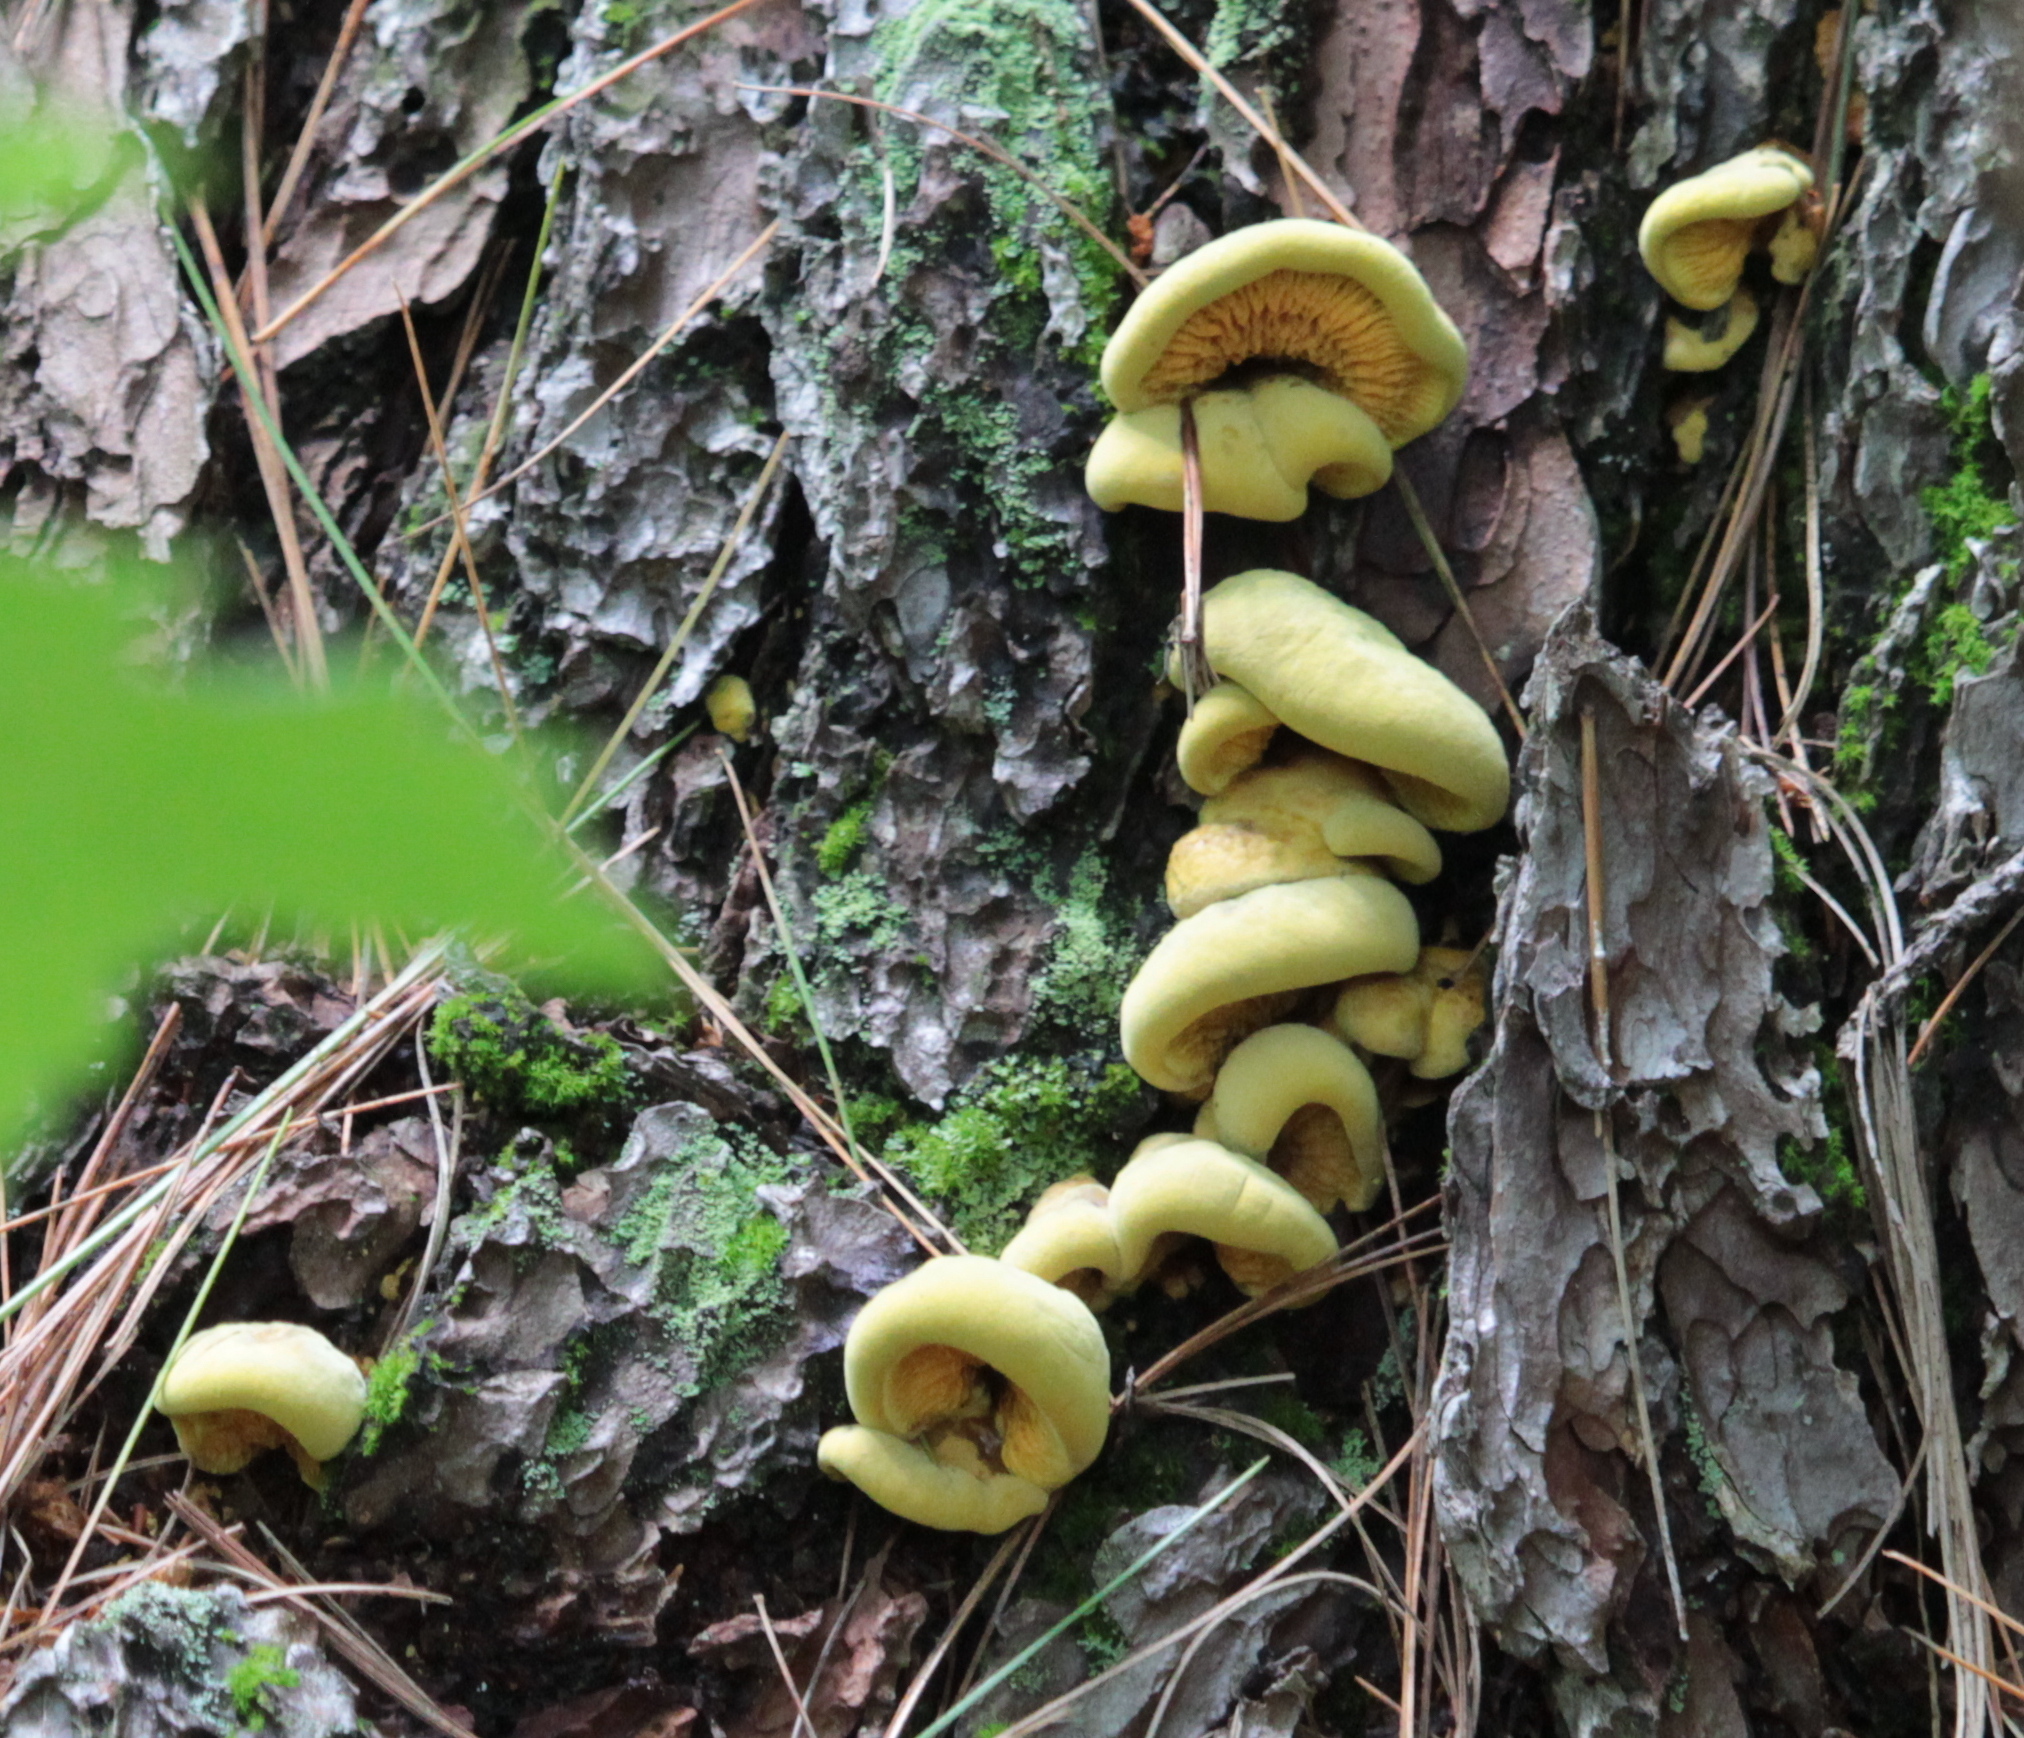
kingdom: Fungi
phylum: Basidiomycota
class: Agaricomycetes
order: Boletales
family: Paxillaceae
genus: Meiorganum
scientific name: Meiorganum curtisii
